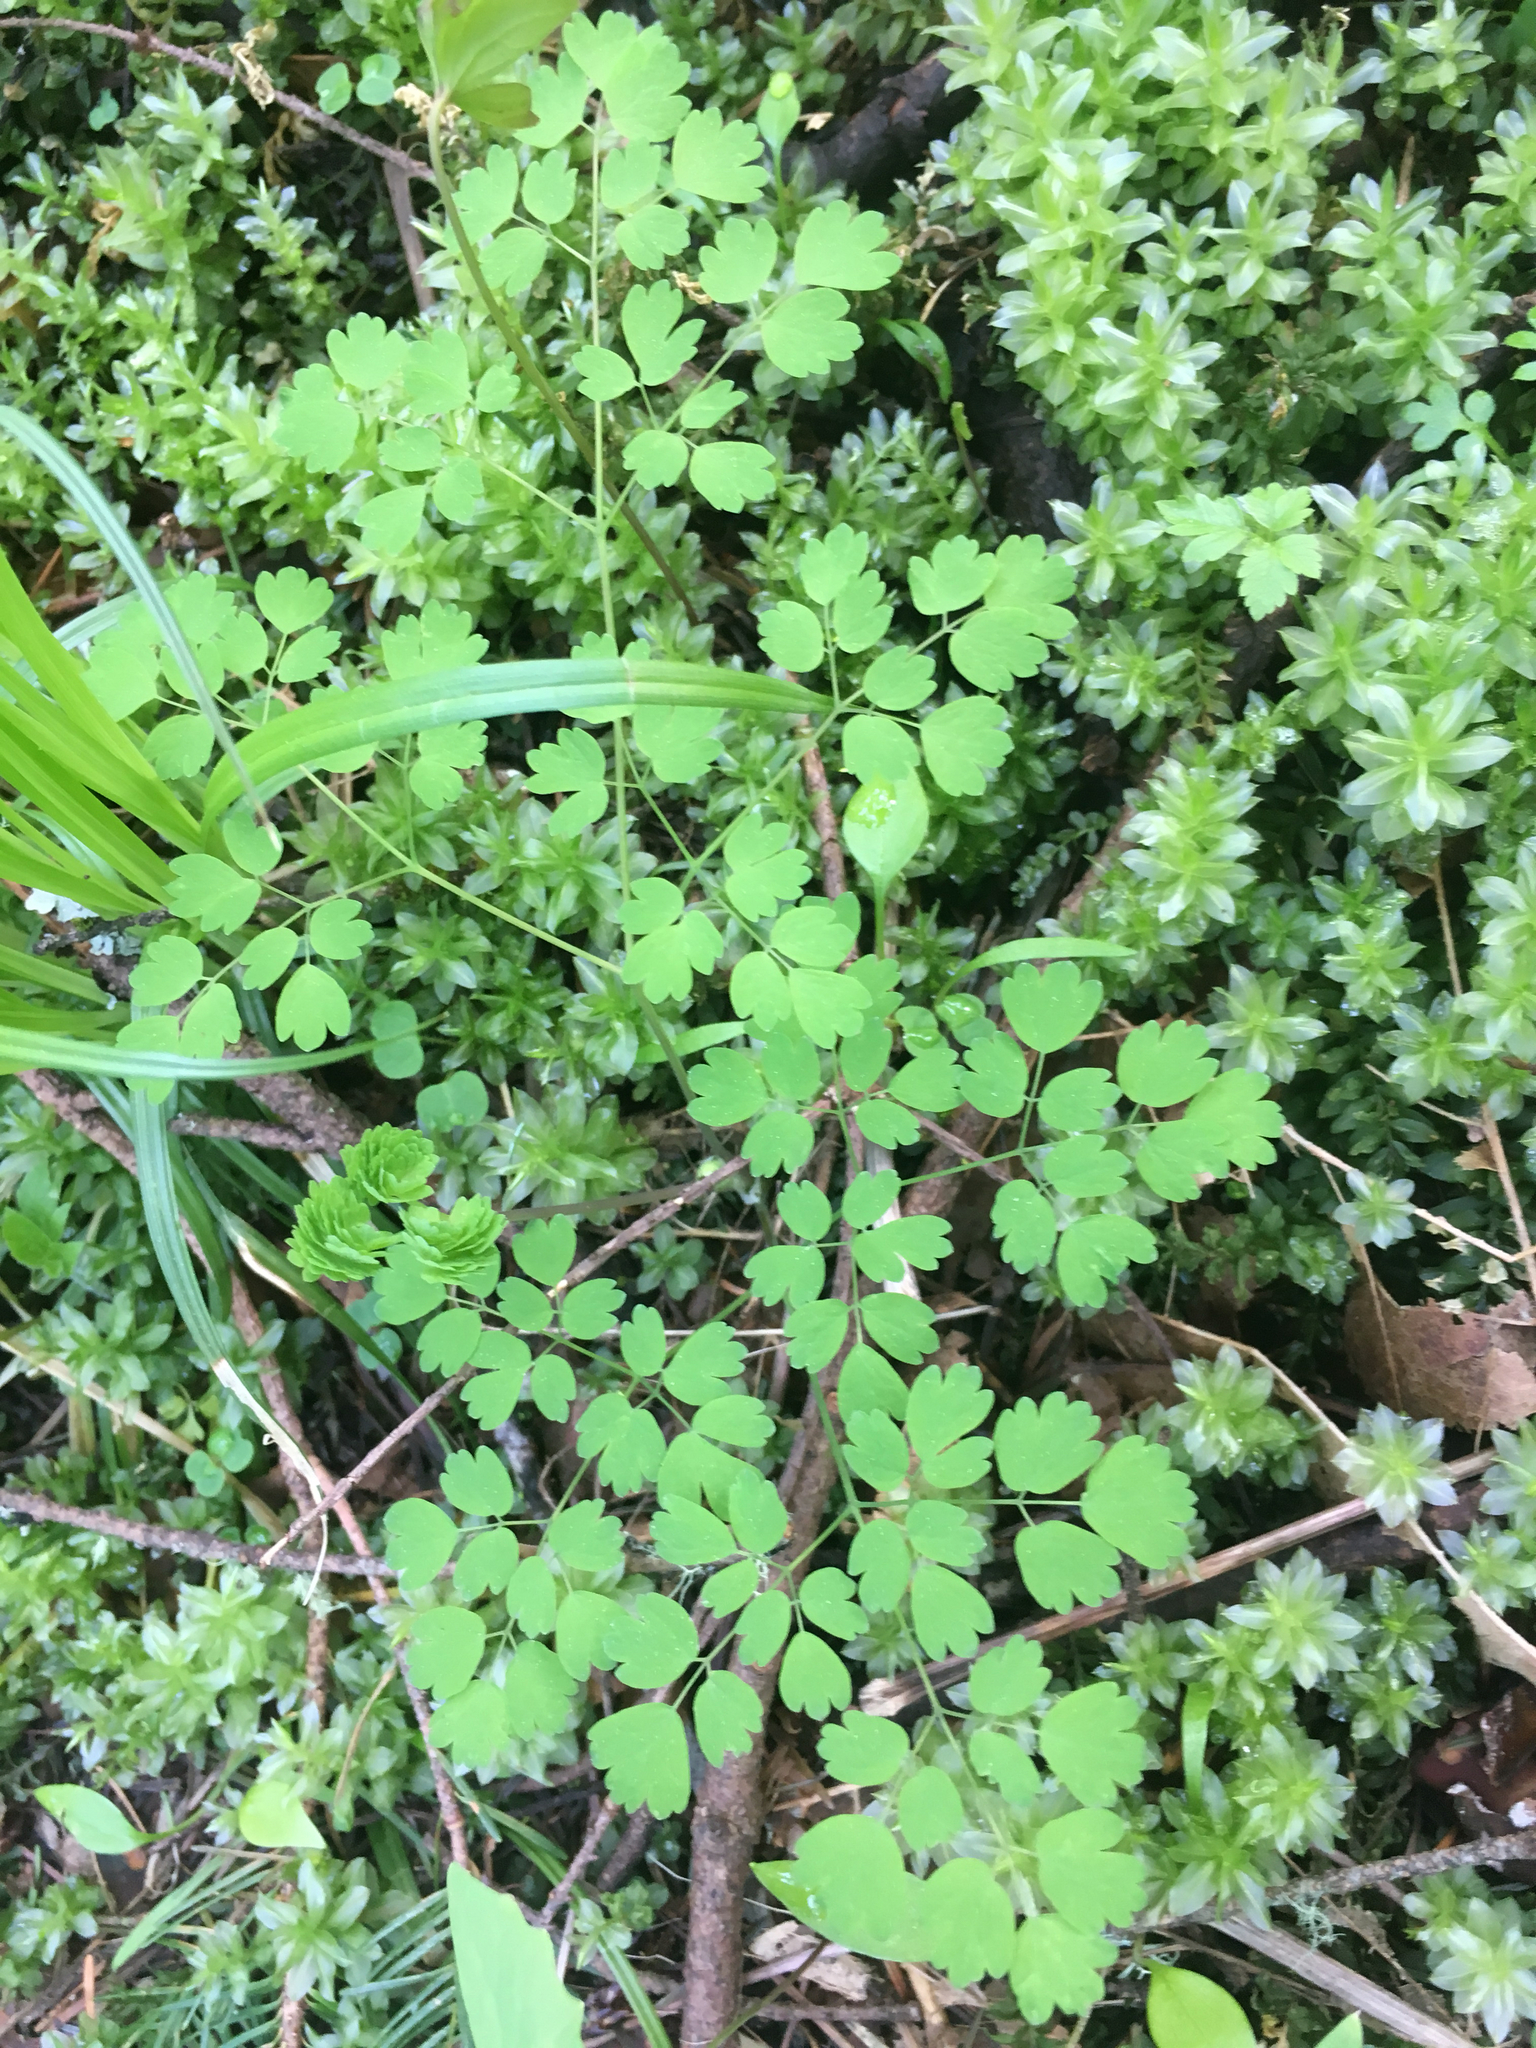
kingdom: Plantae
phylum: Tracheophyta
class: Magnoliopsida
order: Ranunculales
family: Ranunculaceae
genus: Thalictrum
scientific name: Thalictrum occidentale
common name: Western meadow-rue
